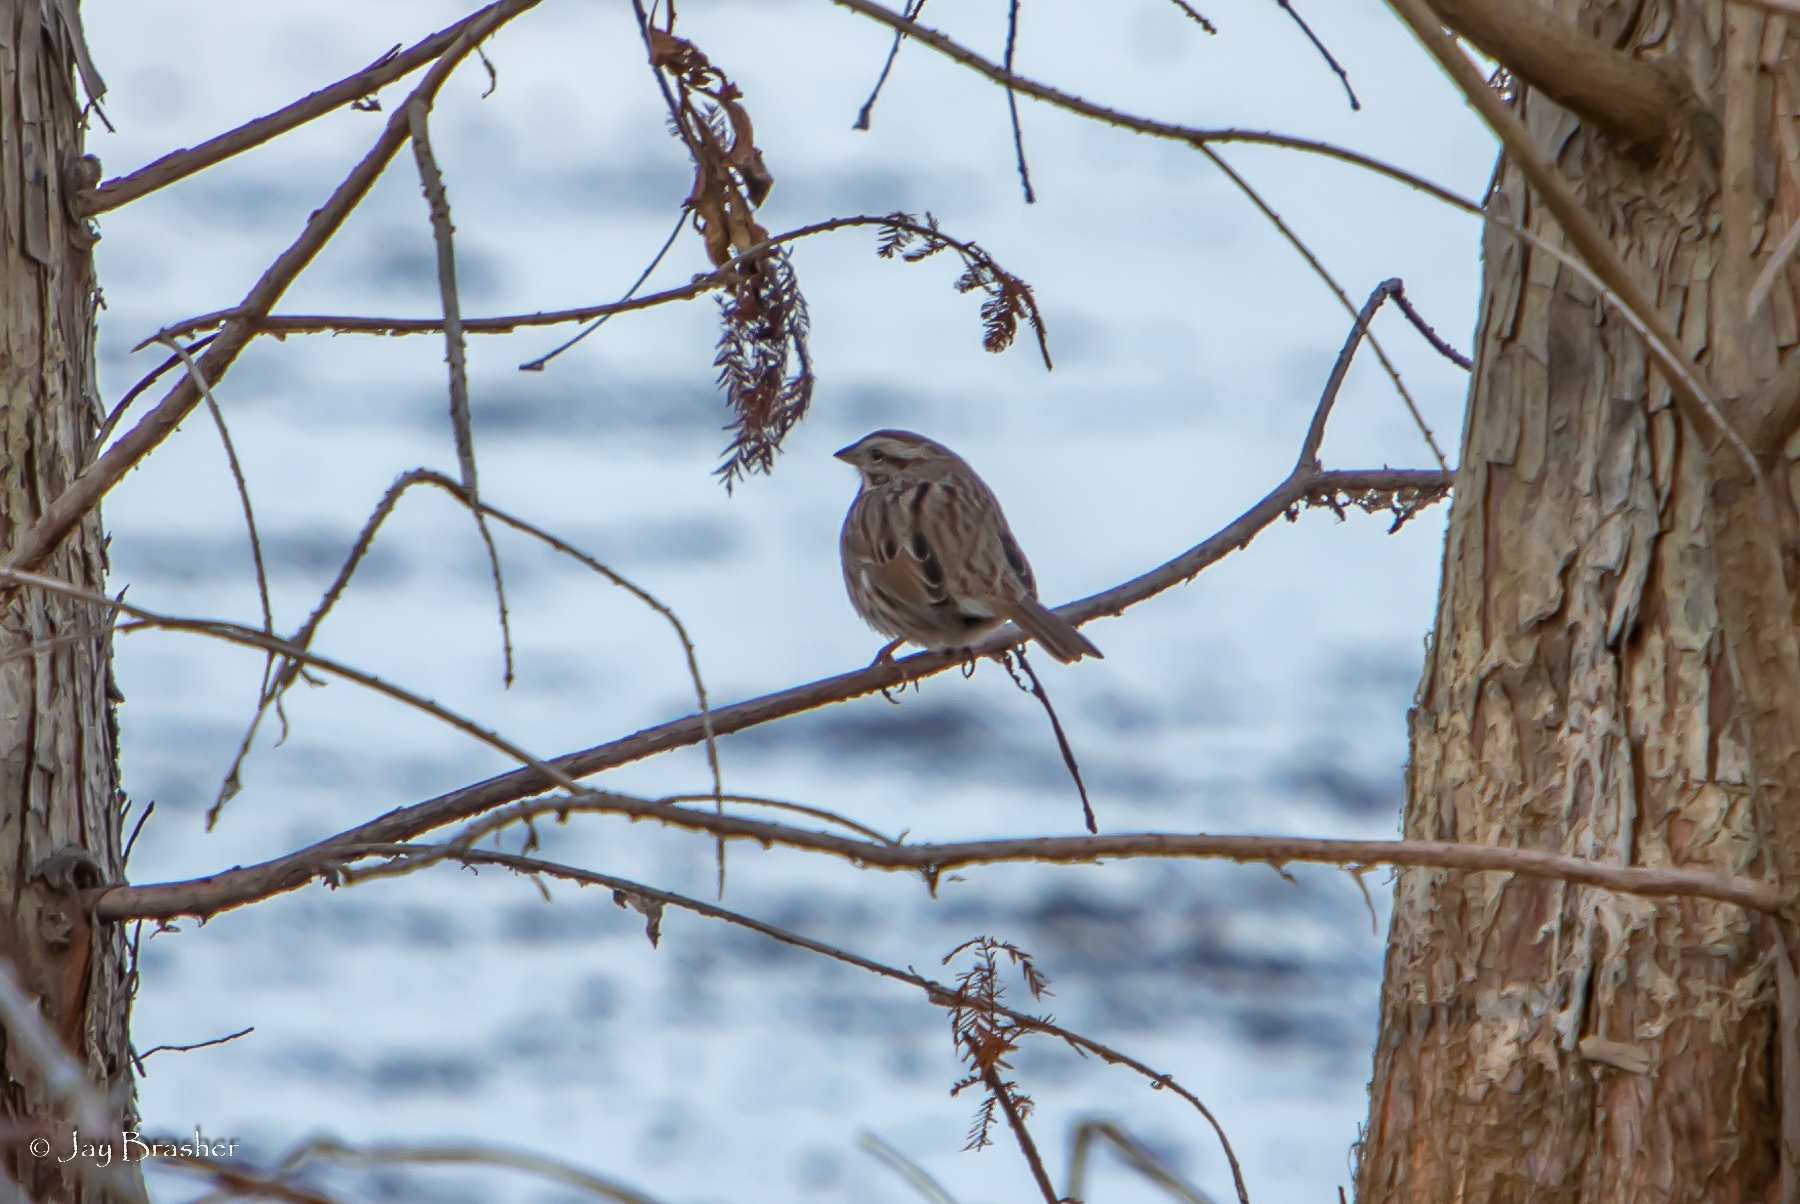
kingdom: Animalia
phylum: Chordata
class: Aves
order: Passeriformes
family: Passerellidae
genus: Melospiza
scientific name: Melospiza melodia
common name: Song sparrow
